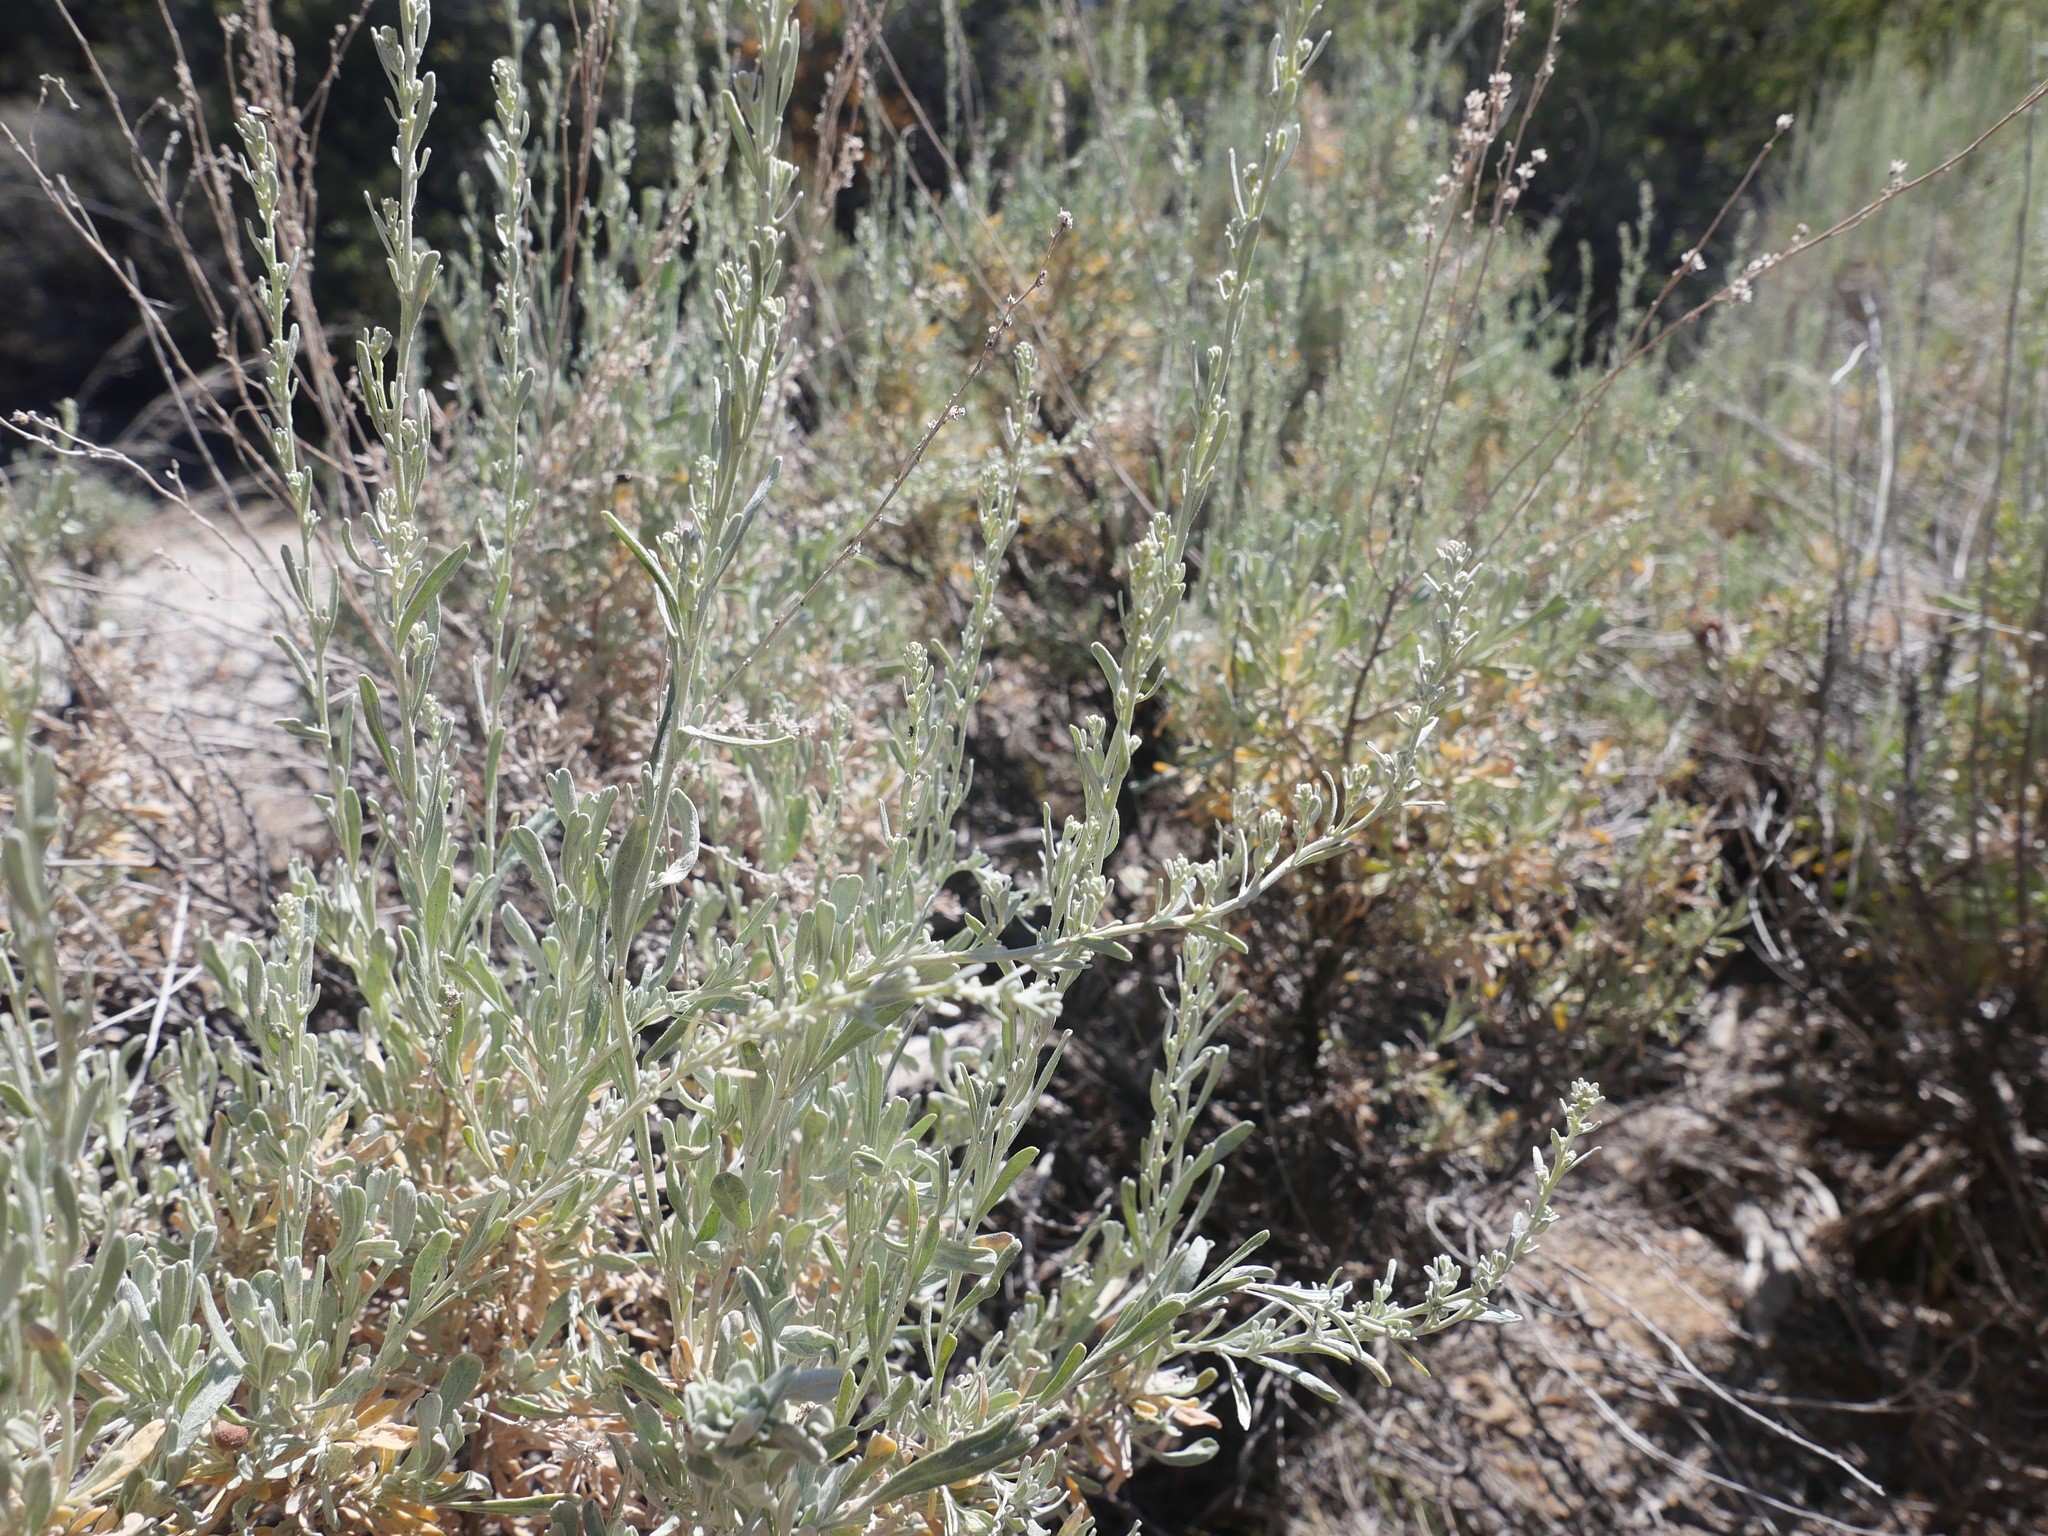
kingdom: Plantae
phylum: Tracheophyta
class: Magnoliopsida
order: Asterales
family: Asteraceae
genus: Artemisia
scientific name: Artemisia tridentata
